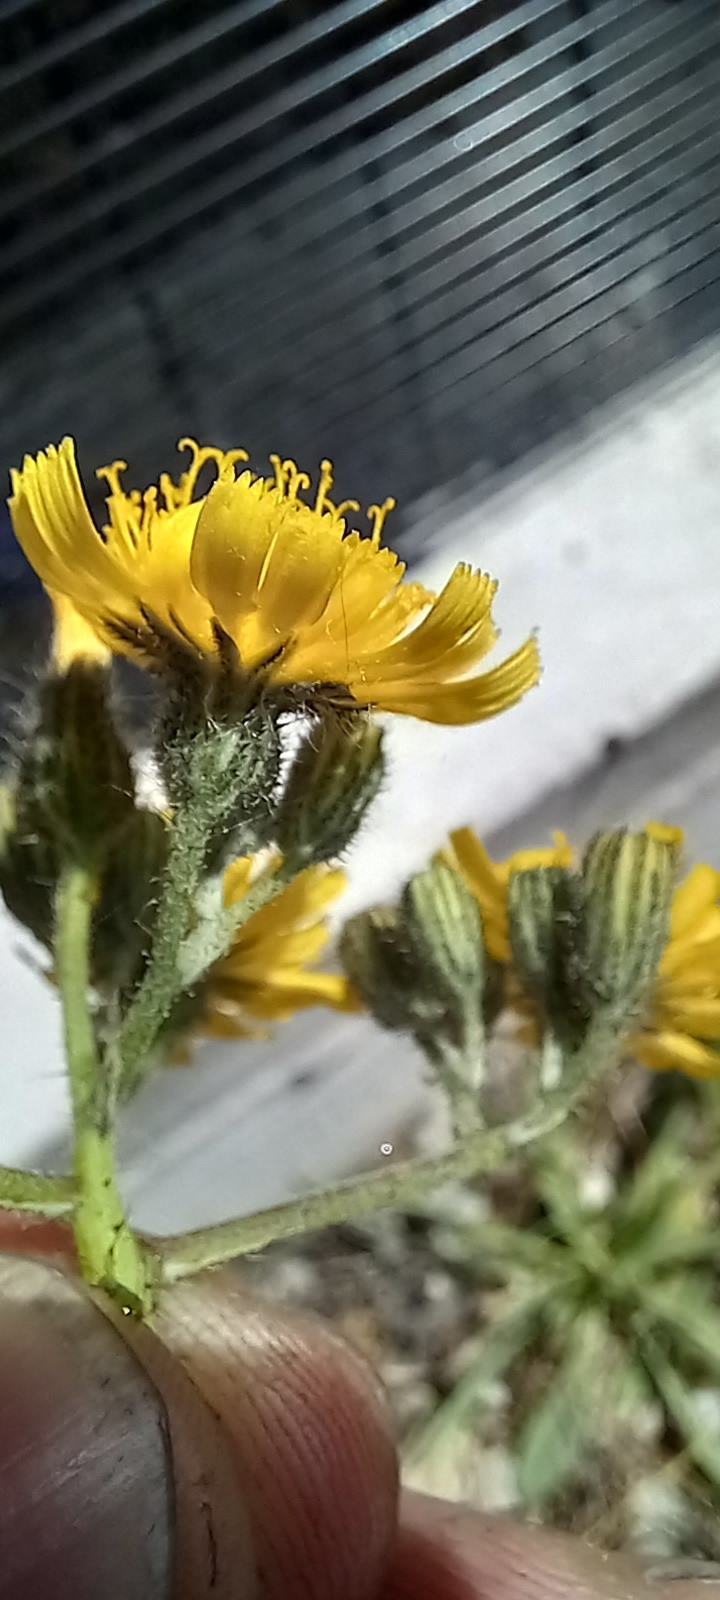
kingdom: Plantae
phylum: Tracheophyta
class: Magnoliopsida
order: Asterales
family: Asteraceae
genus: Pilosella
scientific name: Pilosella piloselloides
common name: Glaucous king-devil
